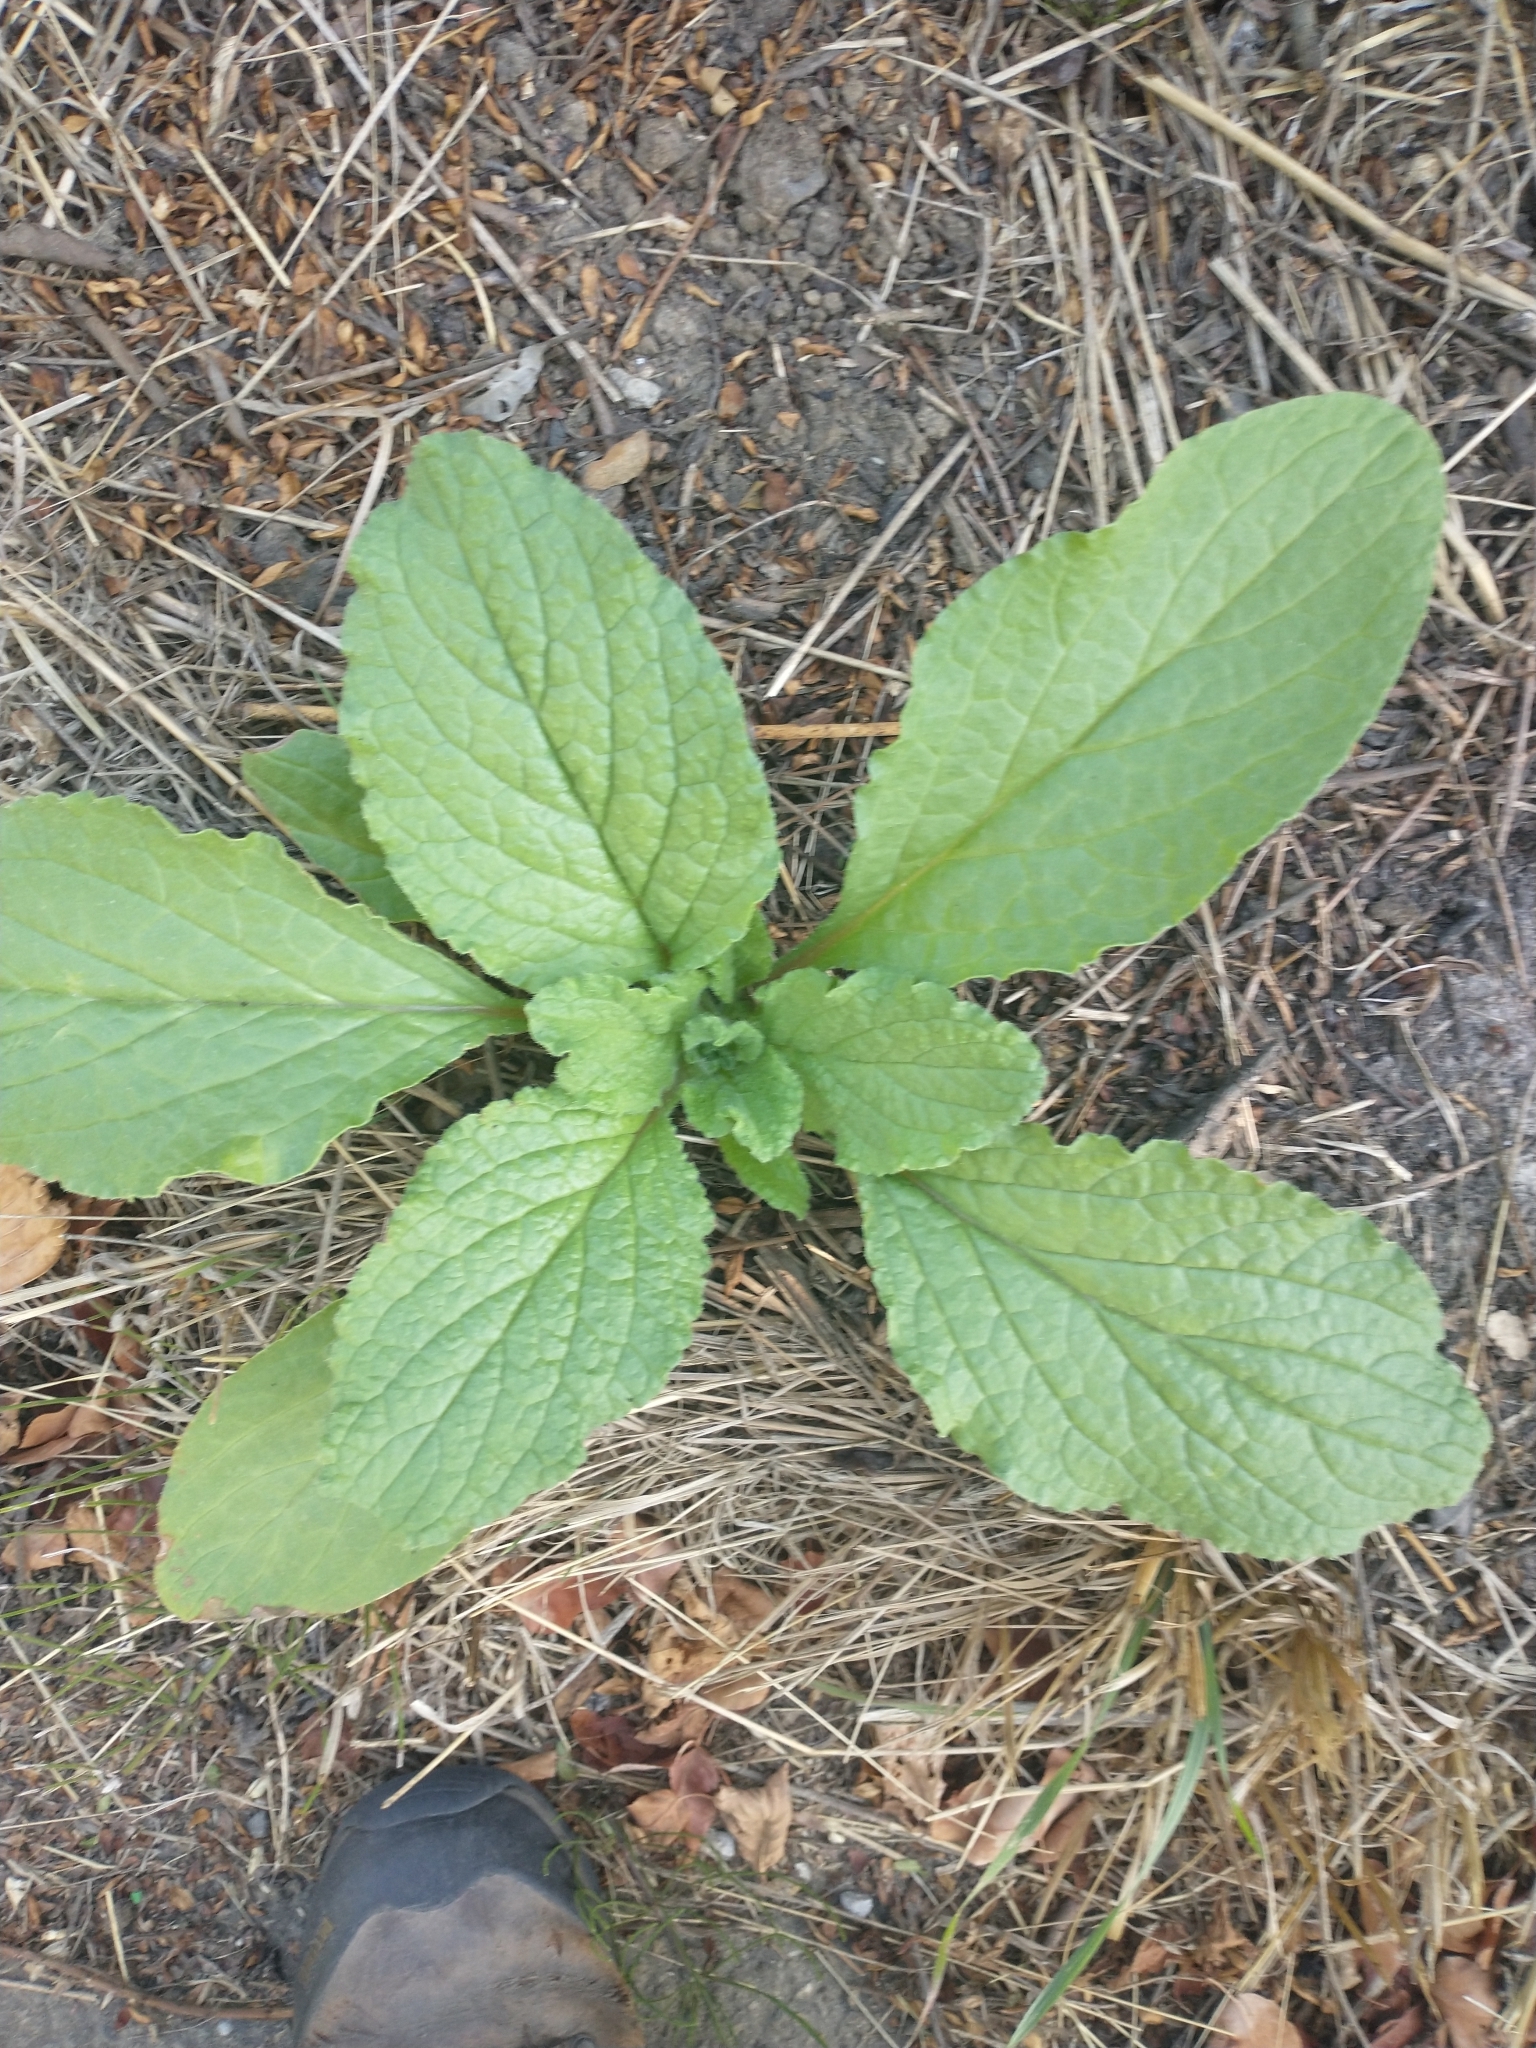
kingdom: Plantae
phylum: Tracheophyta
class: Magnoliopsida
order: Boraginales
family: Boraginaceae
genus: Borago
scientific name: Borago officinalis
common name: Borage
